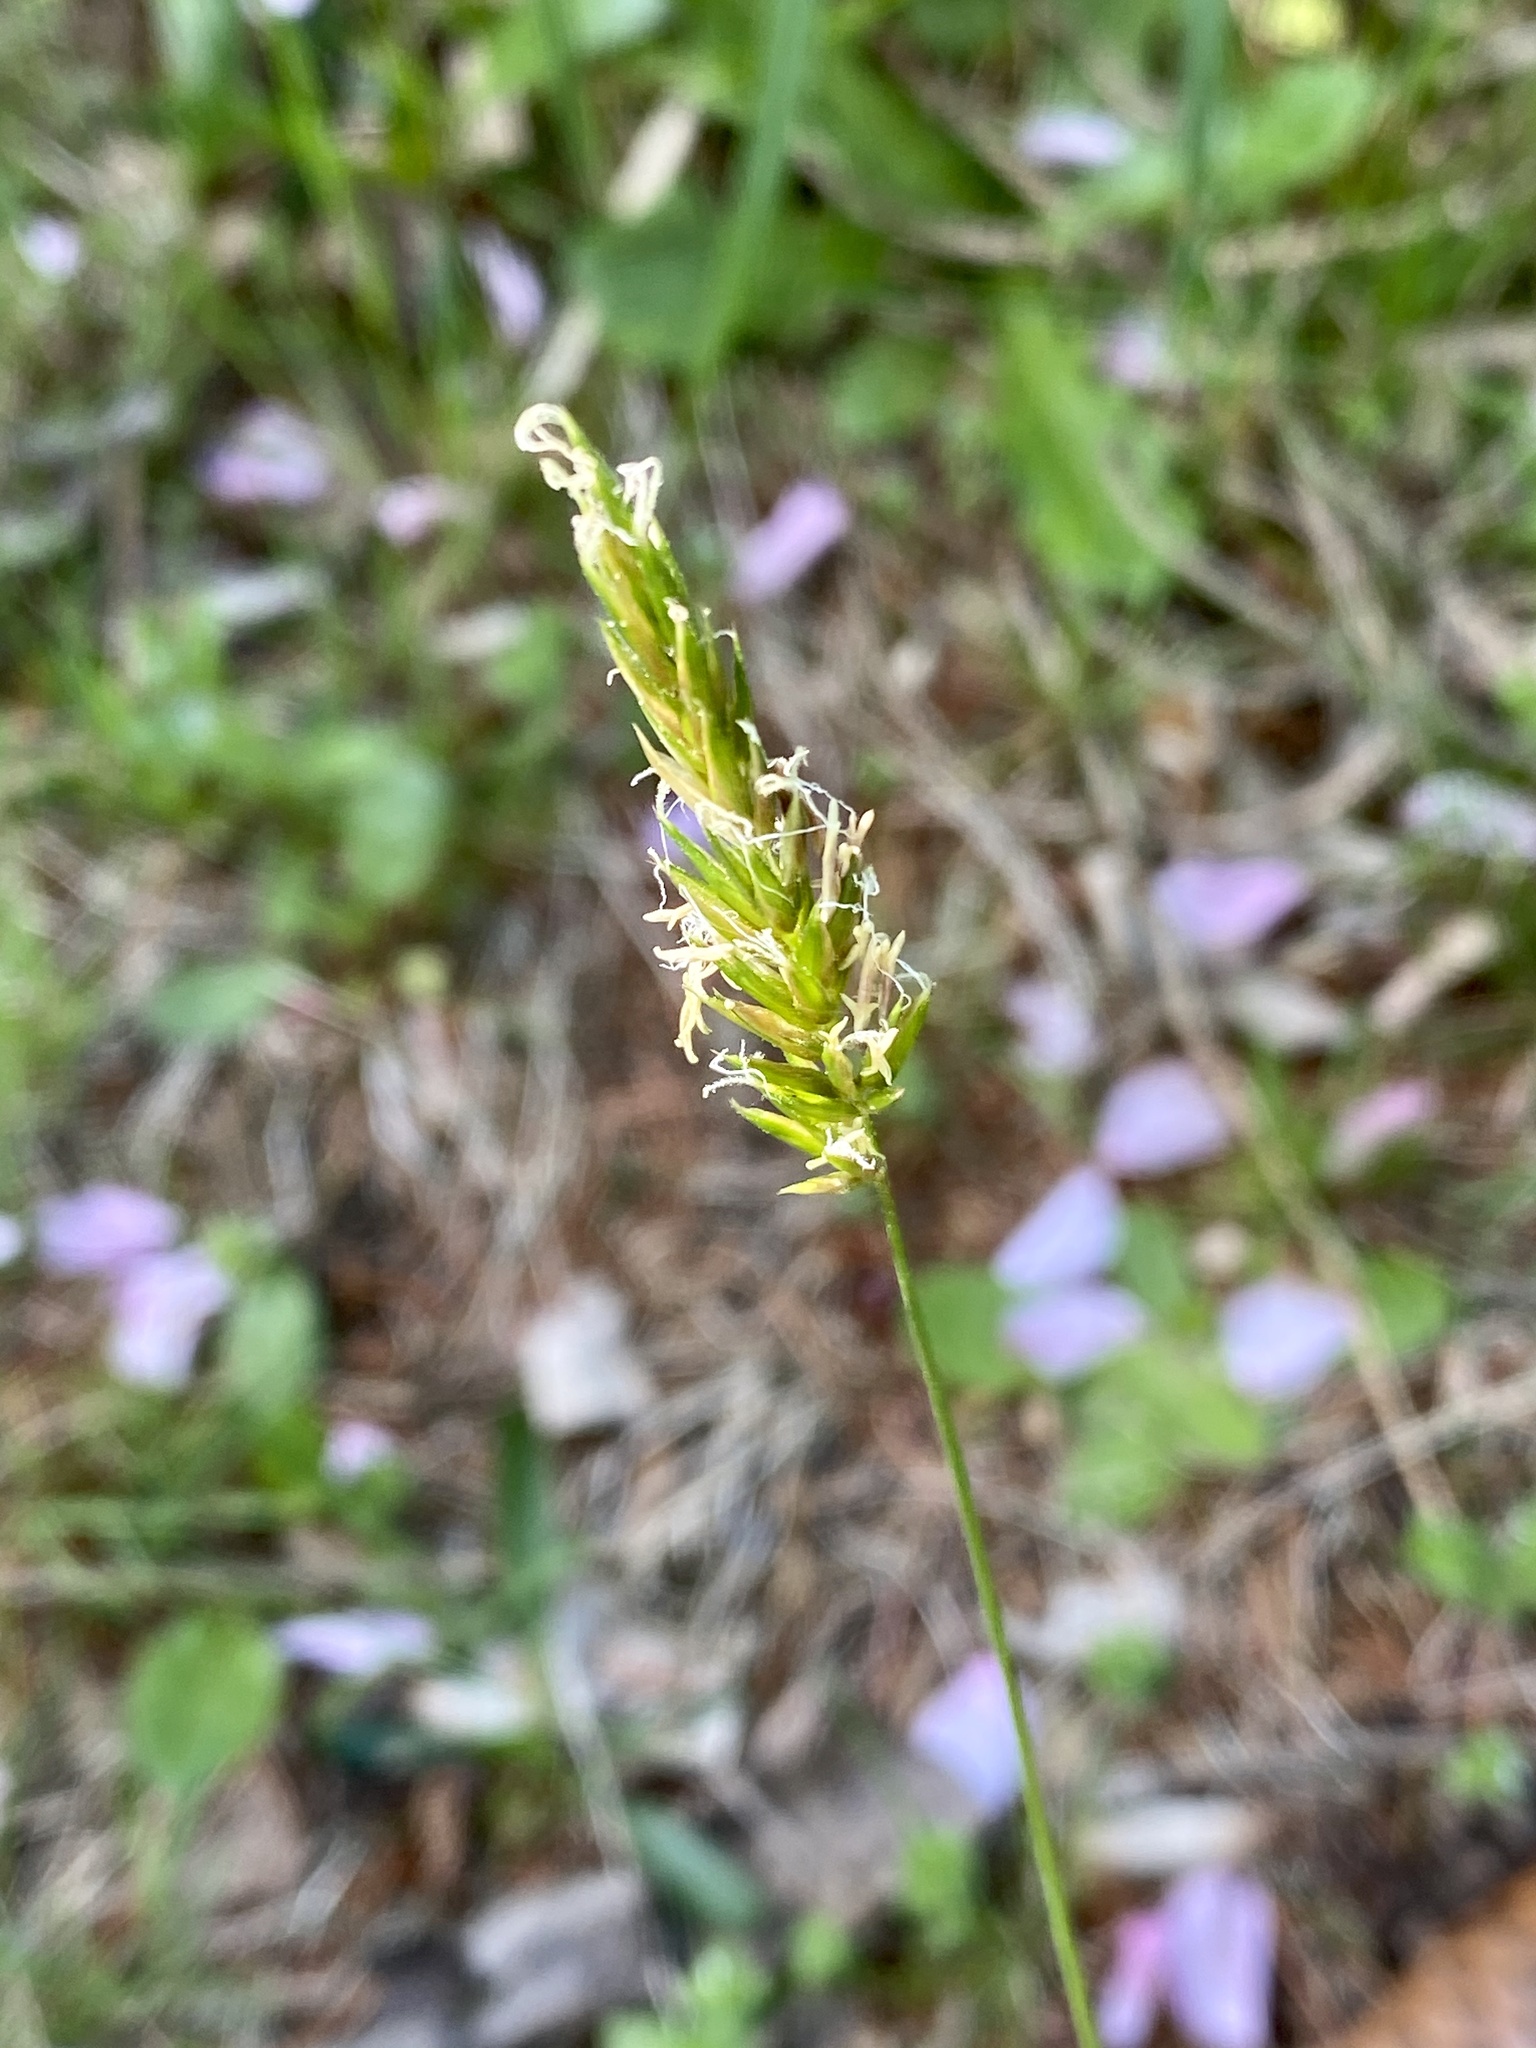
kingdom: Plantae
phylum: Tracheophyta
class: Liliopsida
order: Poales
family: Poaceae
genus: Anthoxanthum
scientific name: Anthoxanthum odoratum
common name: Sweet vernalgrass
